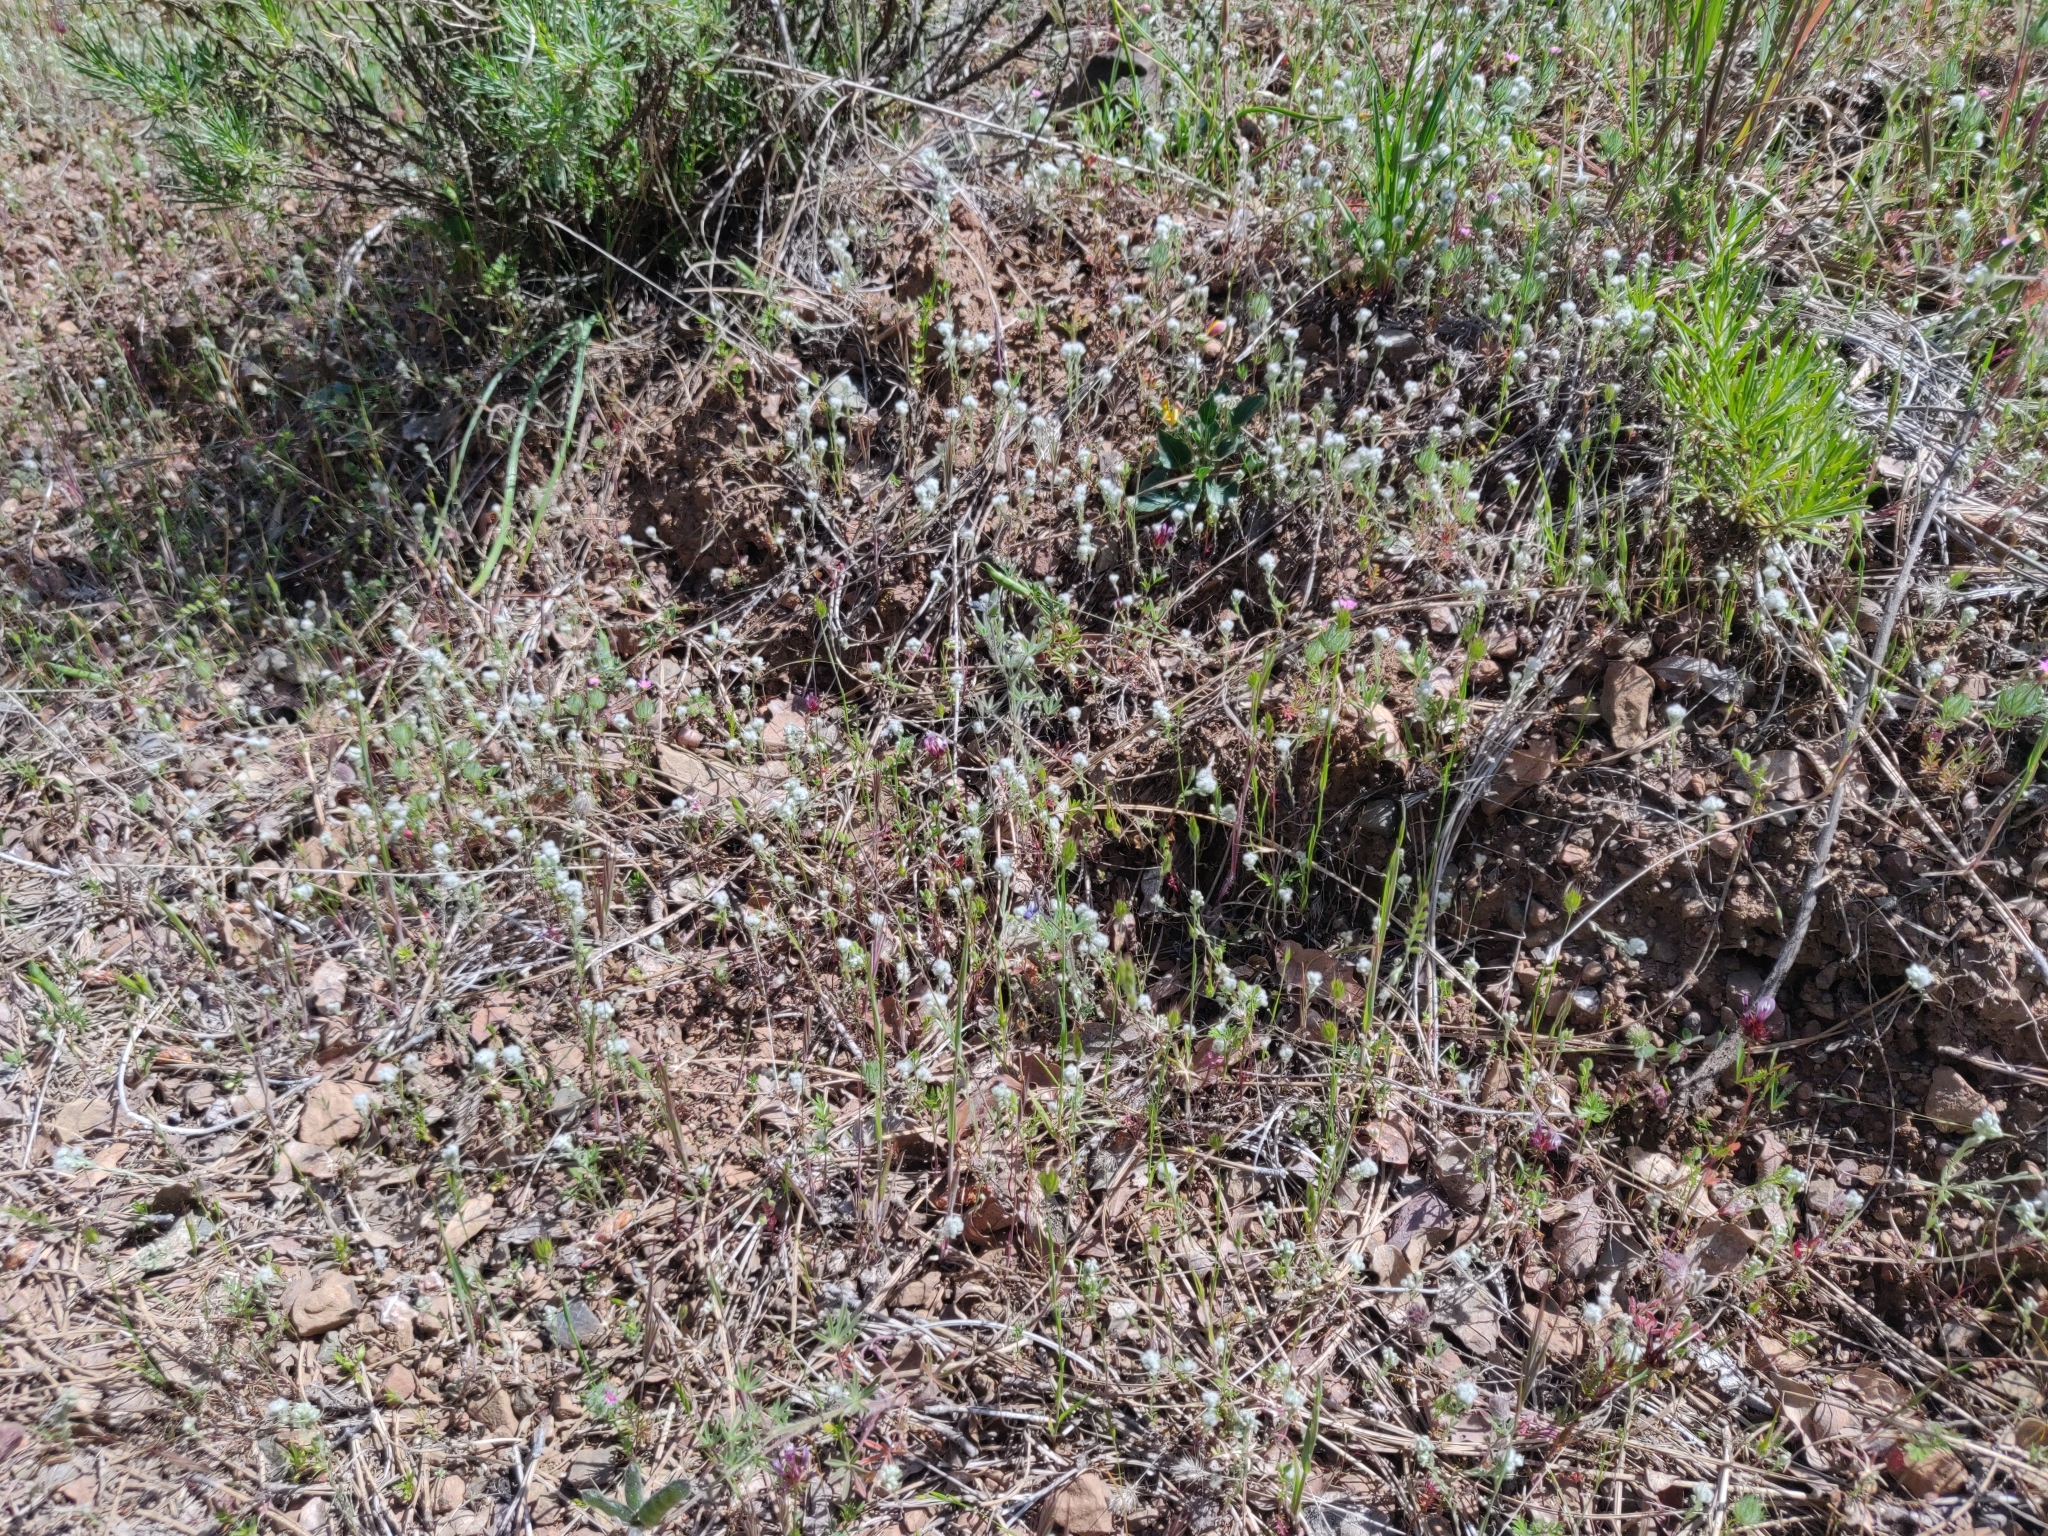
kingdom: Plantae
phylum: Tracheophyta
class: Magnoliopsida
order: Asterales
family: Asteraceae
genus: Bombycilaena
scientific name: Bombycilaena californica
